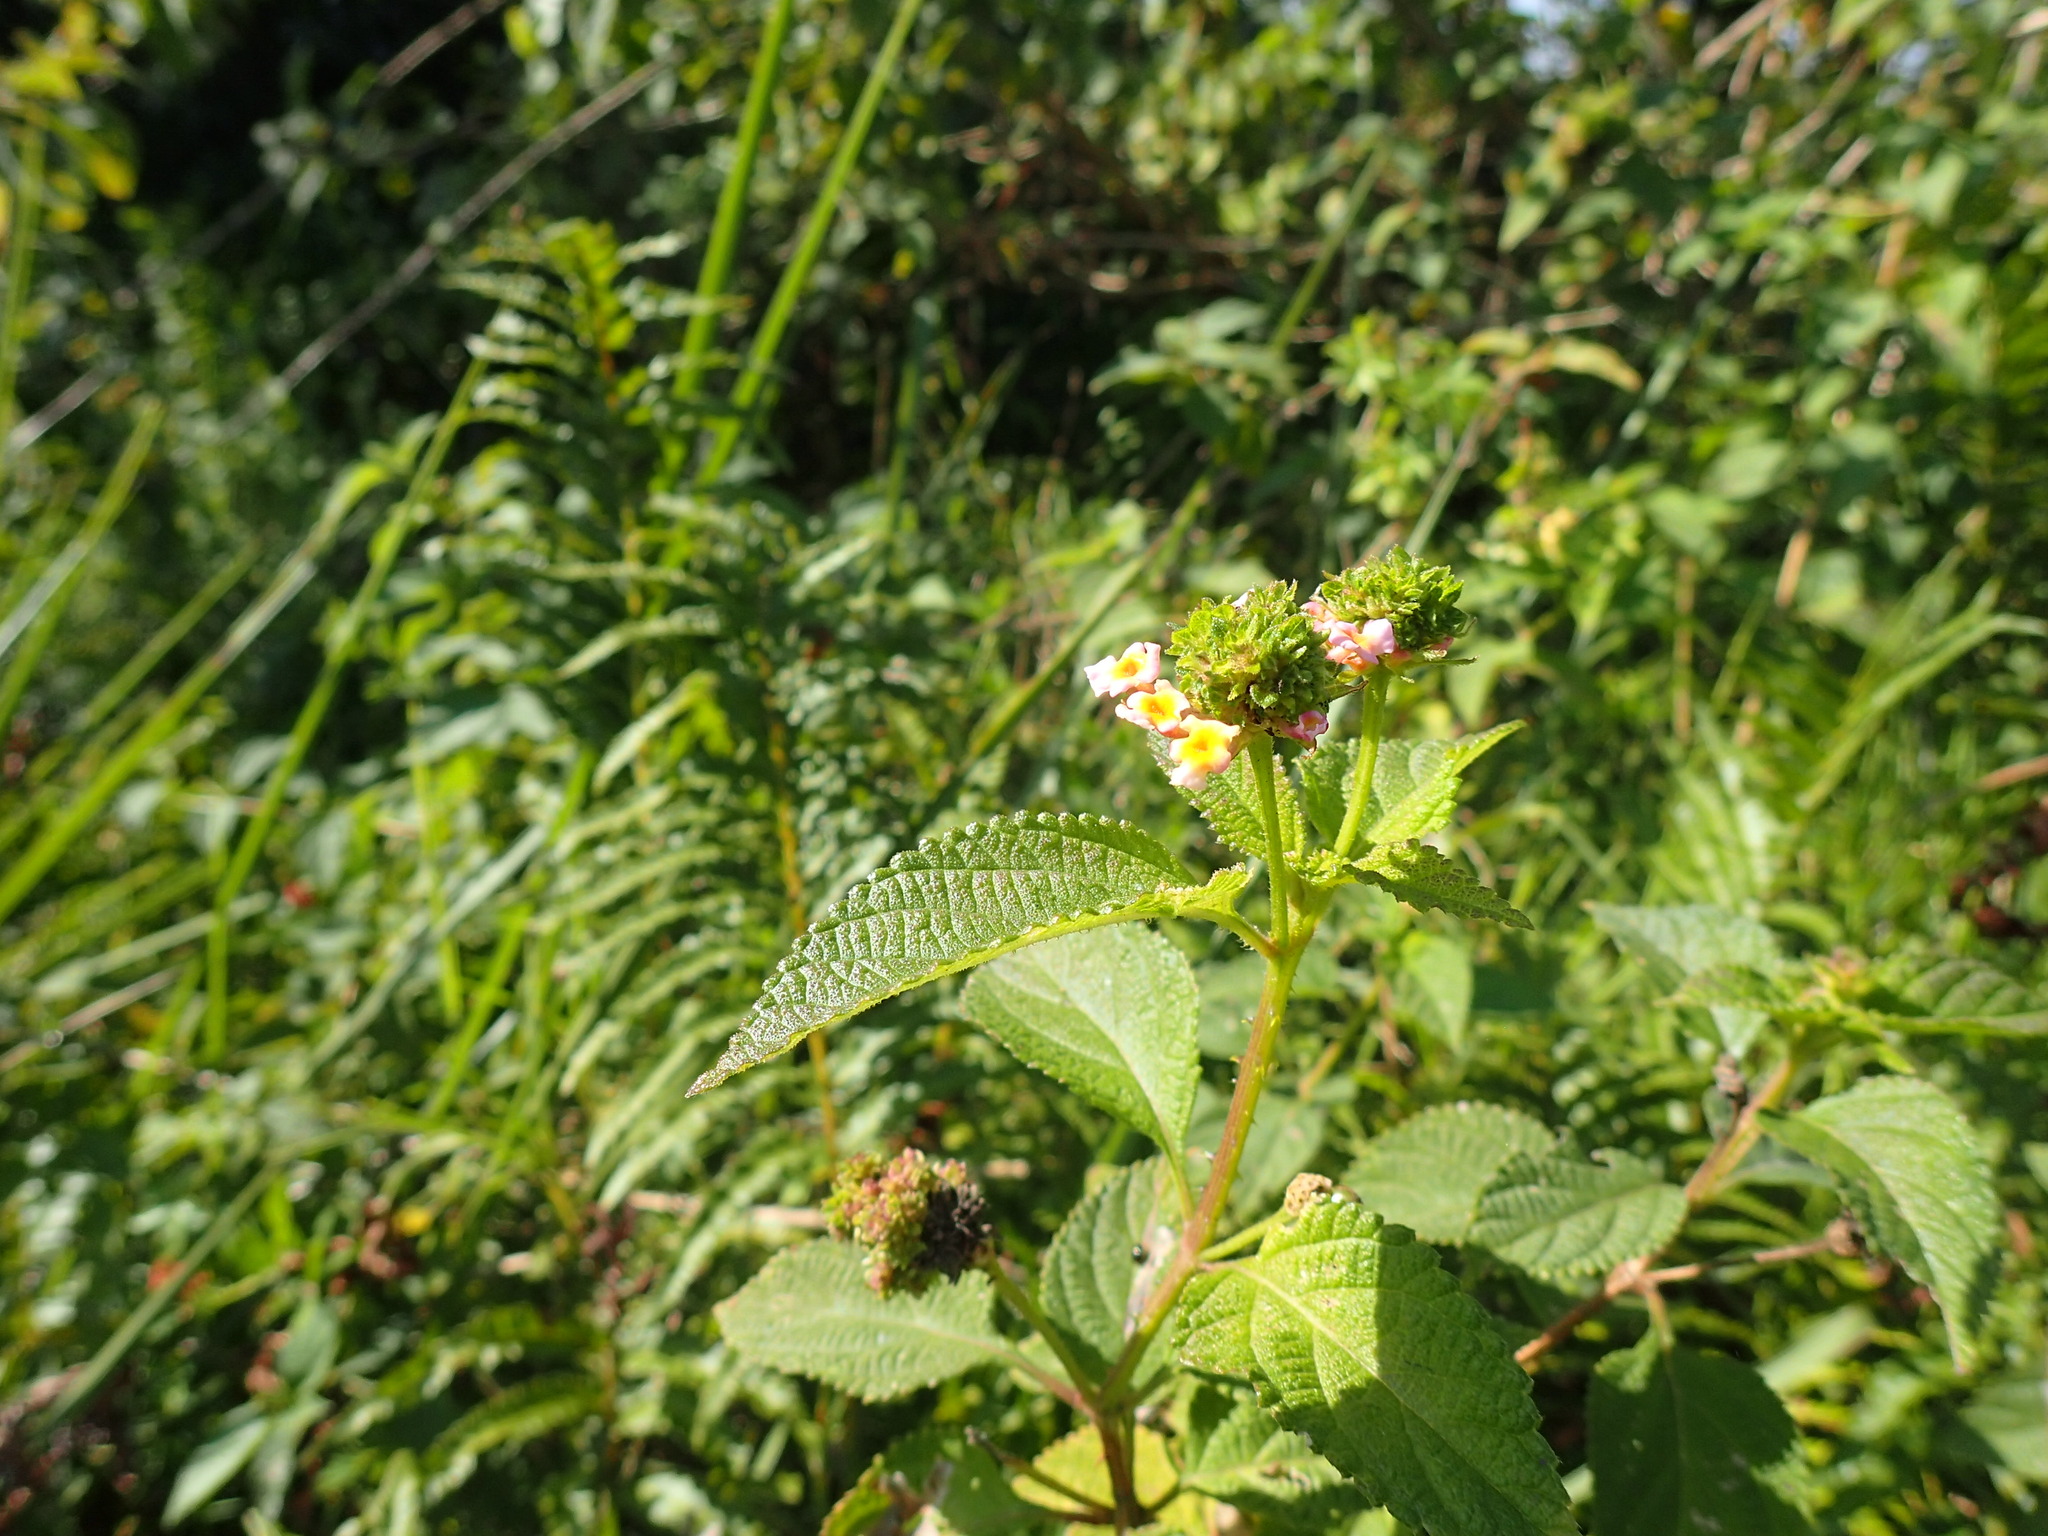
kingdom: Plantae
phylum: Tracheophyta
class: Magnoliopsida
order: Lamiales
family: Verbenaceae
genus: Lantana
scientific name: Lantana camara
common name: Lantana
